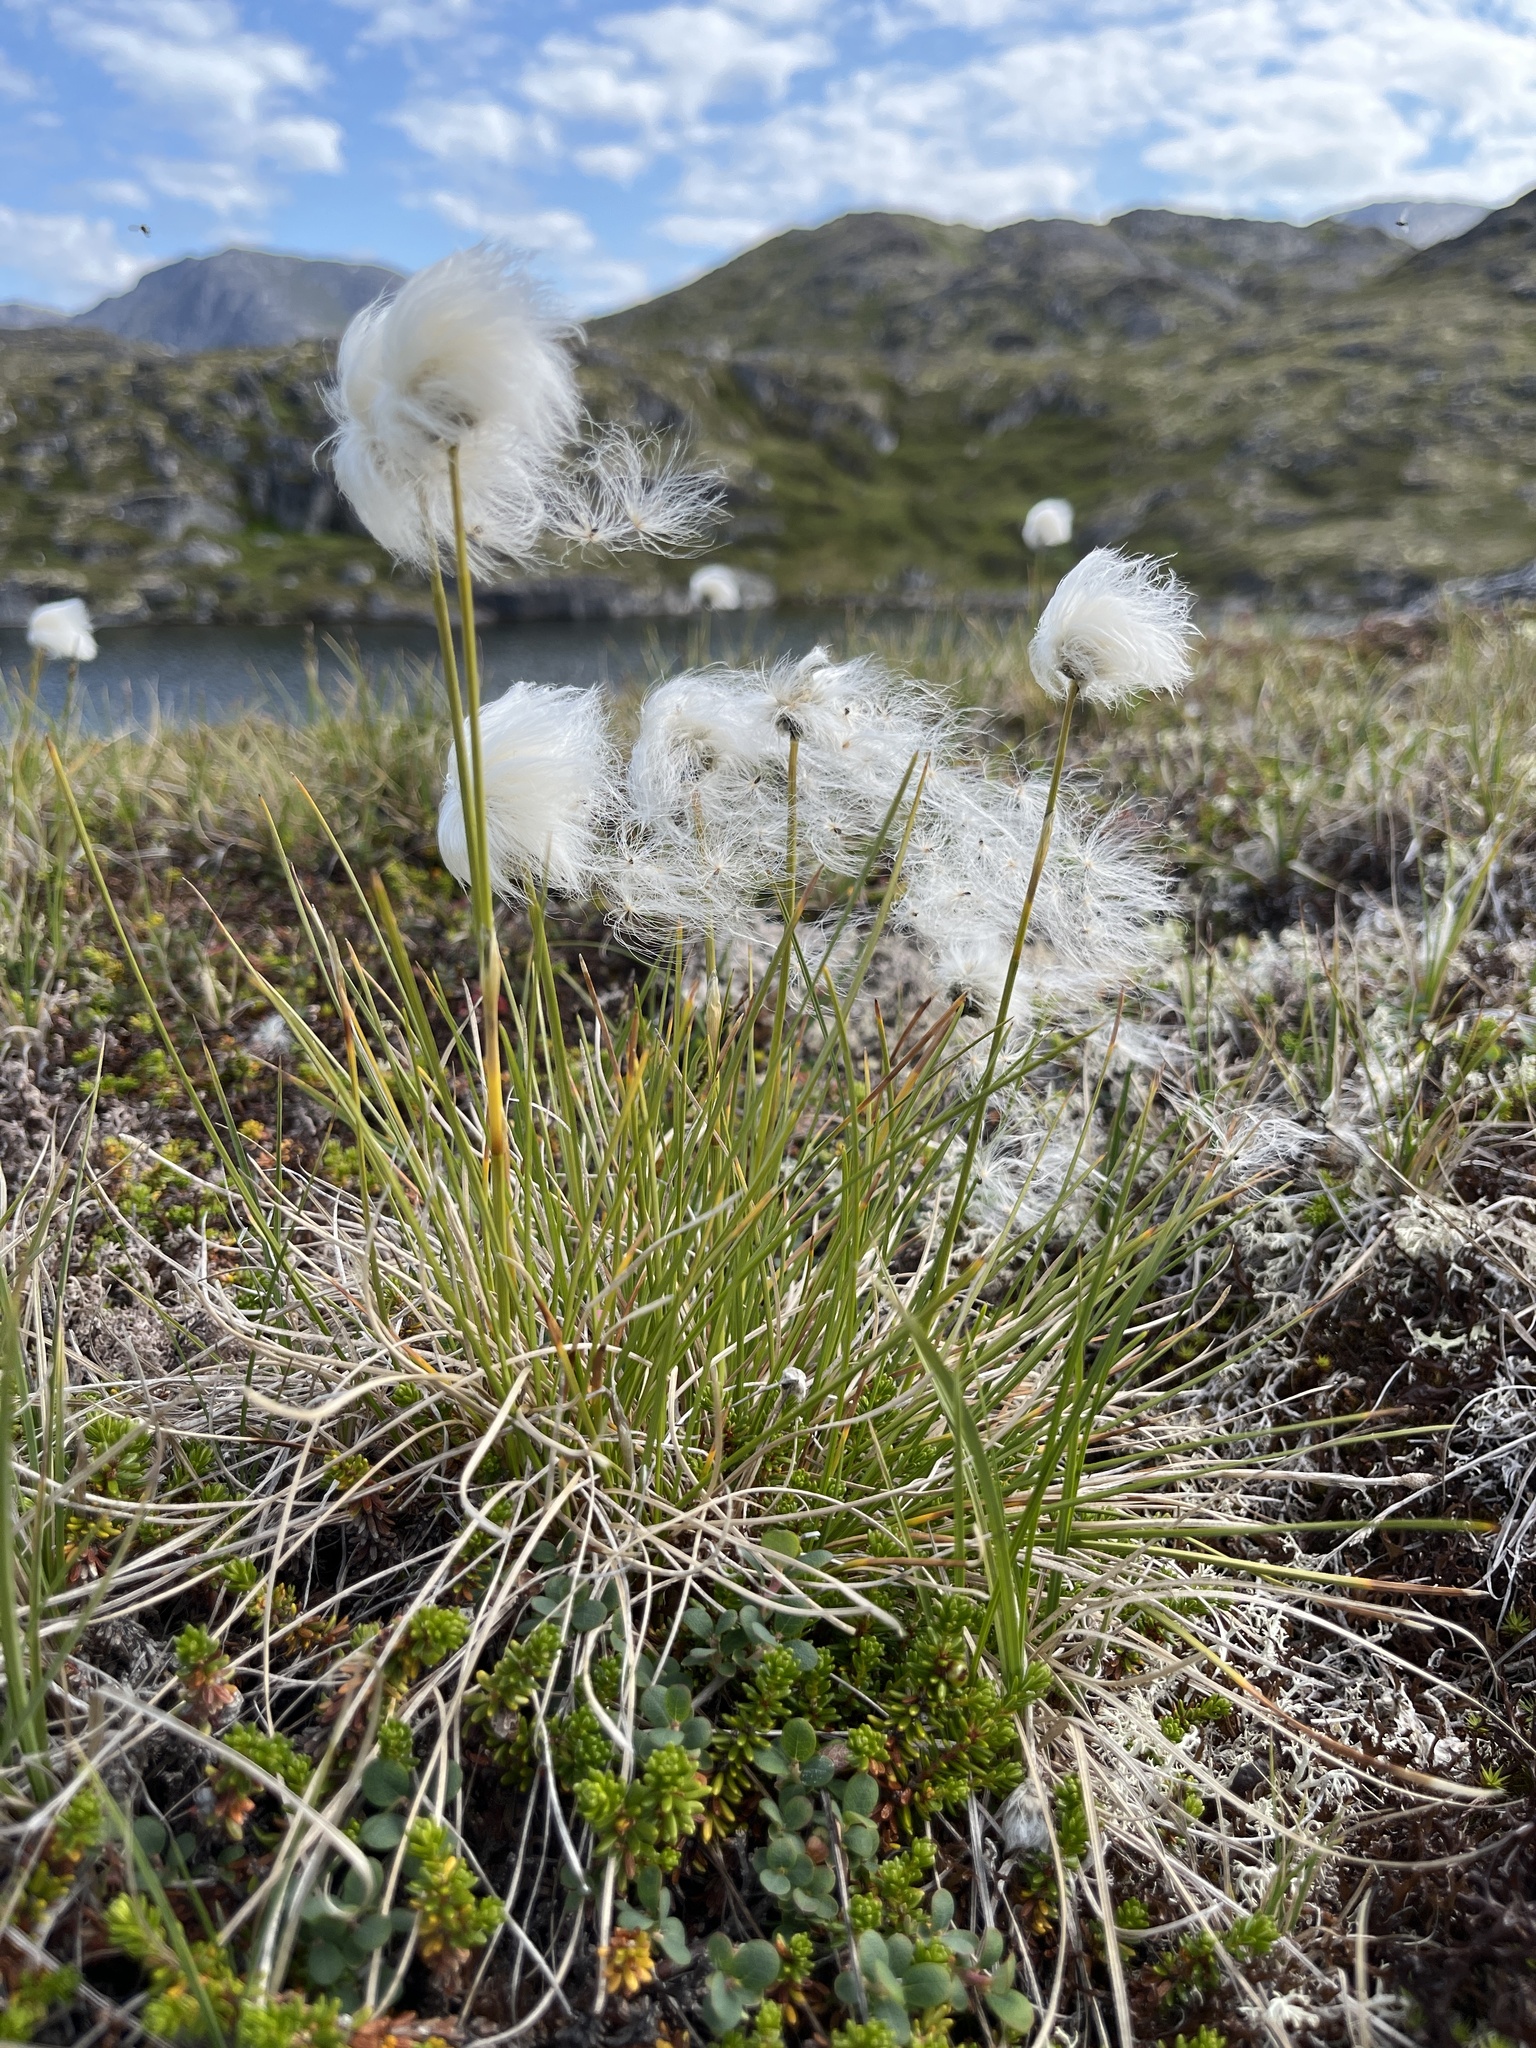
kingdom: Plantae
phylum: Tracheophyta
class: Liliopsida
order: Poales
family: Cyperaceae
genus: Eriophorum
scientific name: Eriophorum vaginatum
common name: Hare's-tail cottongrass
